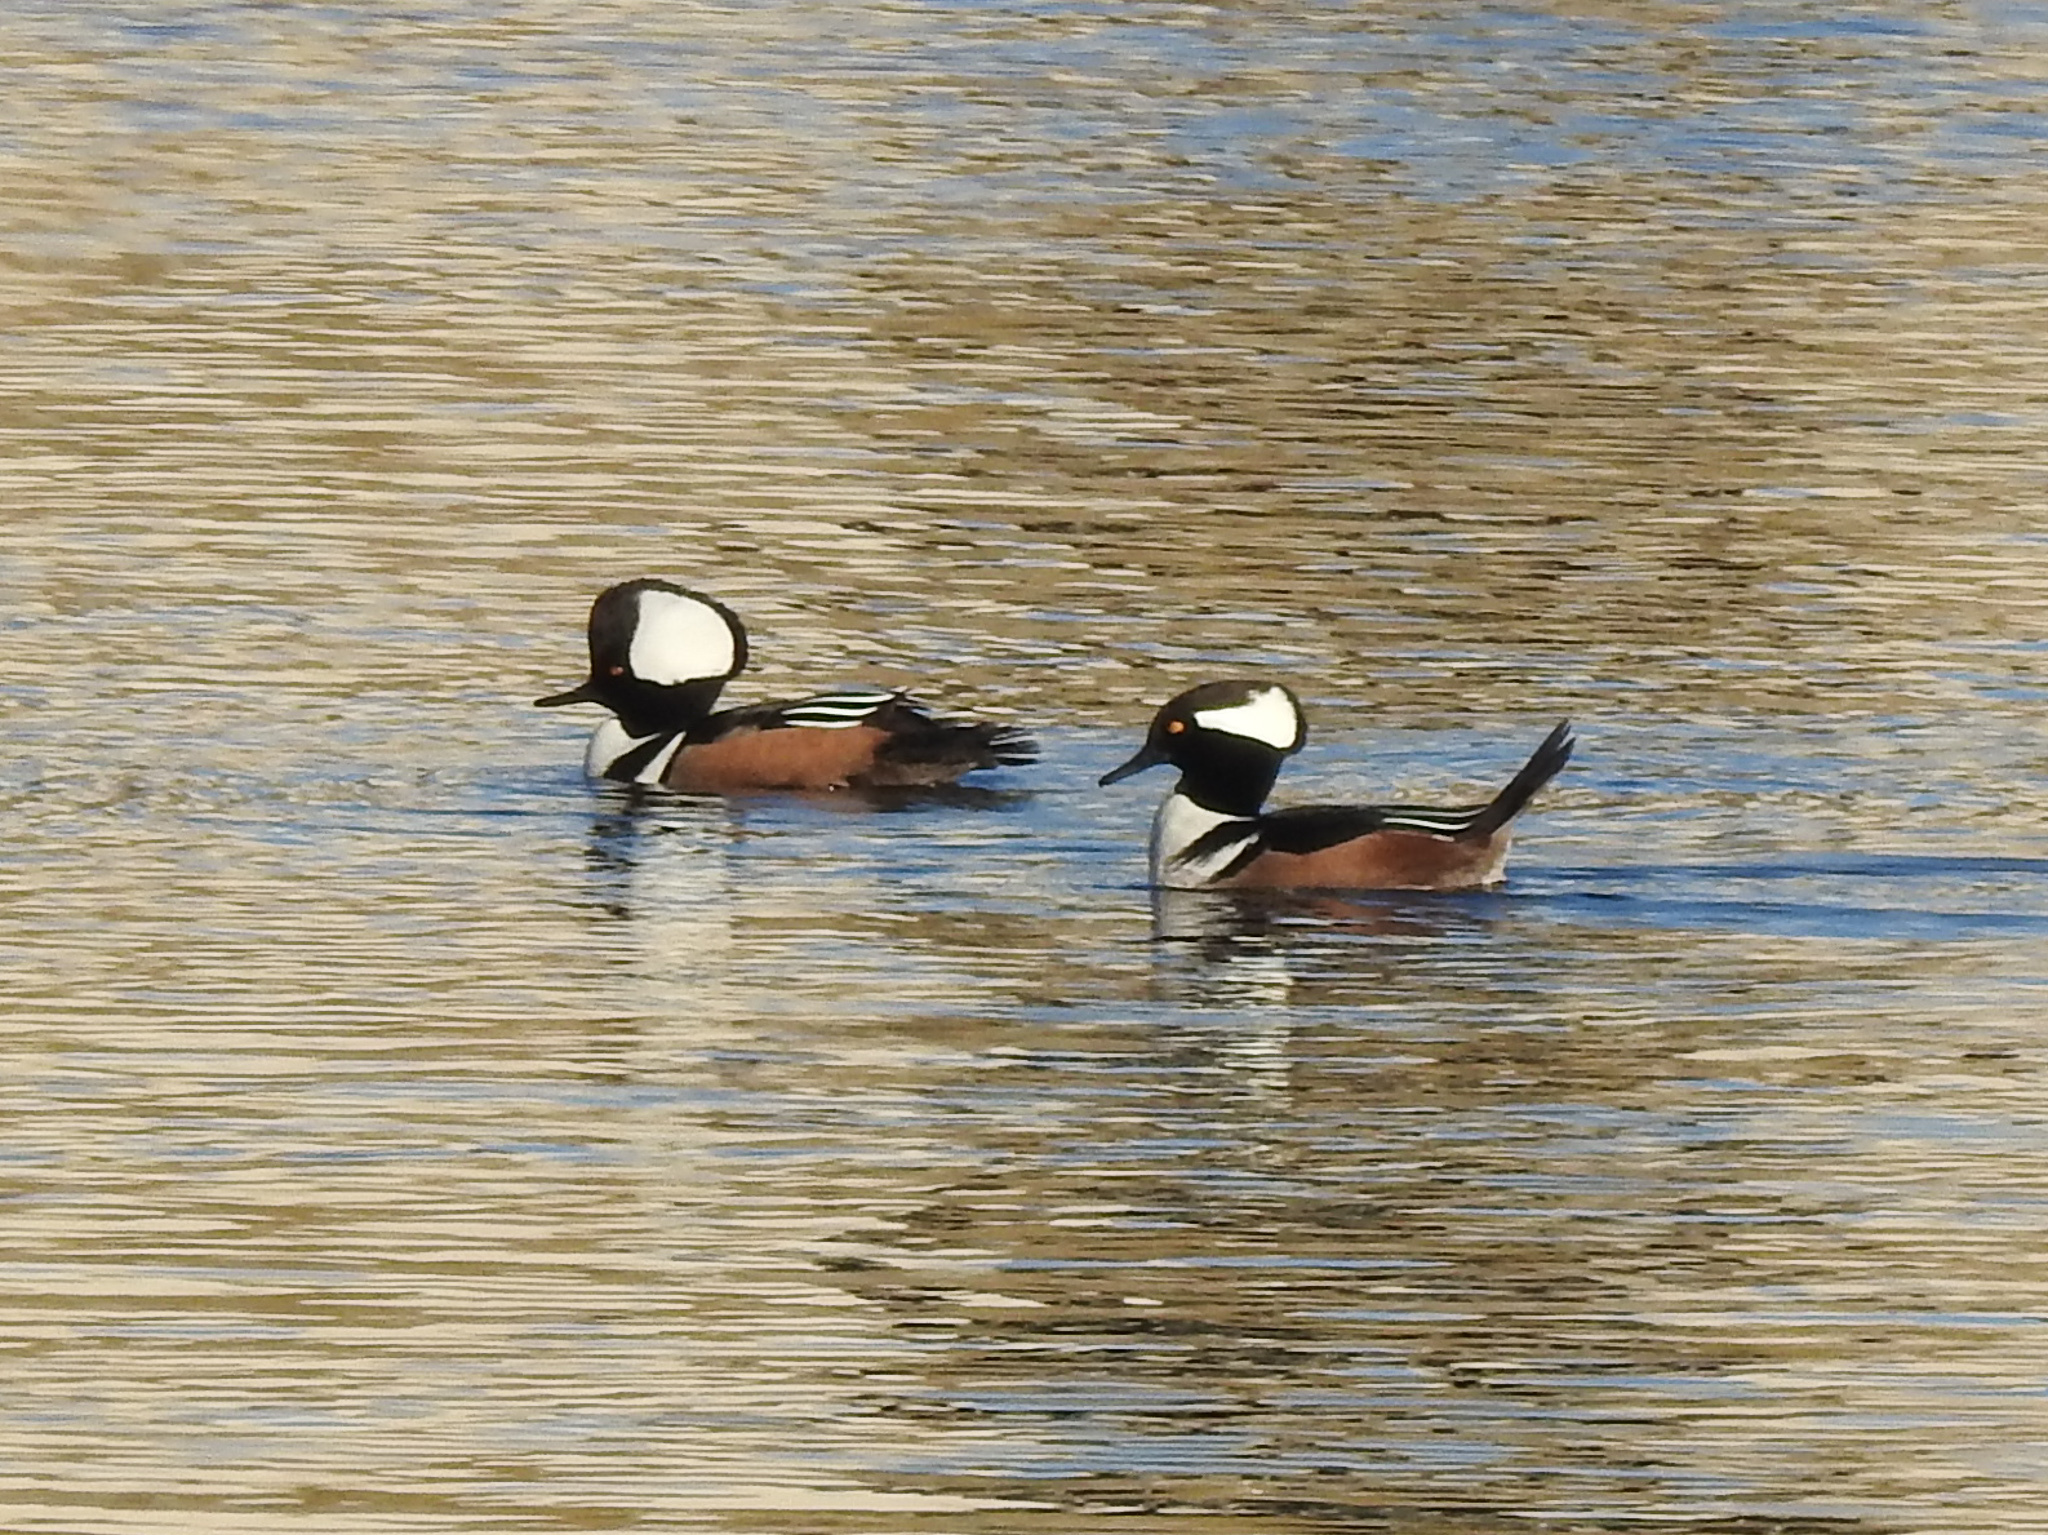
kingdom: Animalia
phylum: Chordata
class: Aves
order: Anseriformes
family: Anatidae
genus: Lophodytes
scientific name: Lophodytes cucullatus
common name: Hooded merganser
